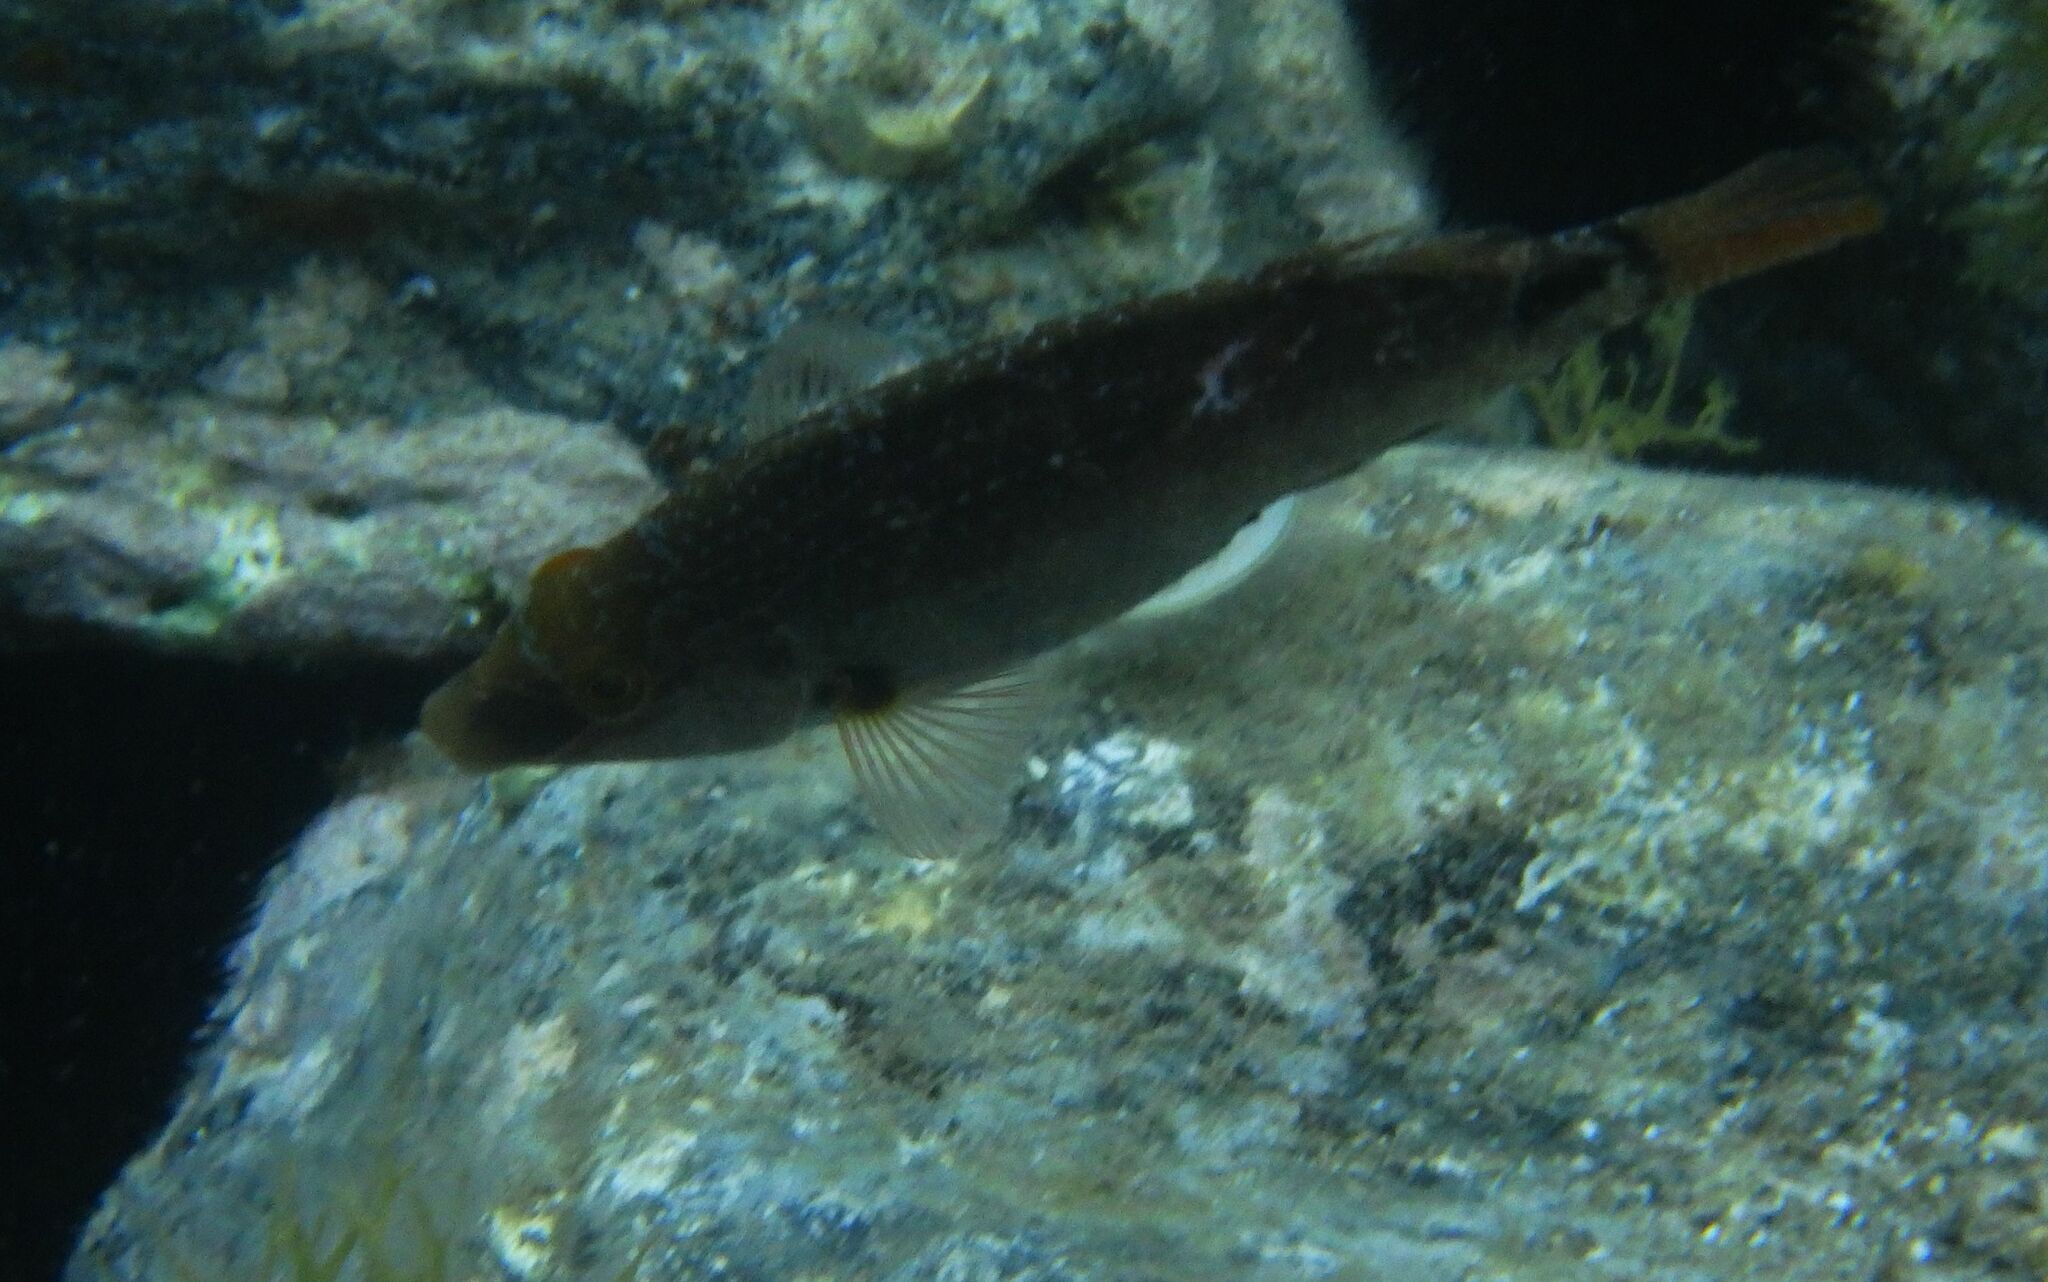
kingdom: Animalia
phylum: Chordata
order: Perciformes
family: Labridae
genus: Symphodus
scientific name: Symphodus mediterraneus
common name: Axillary wrasse
